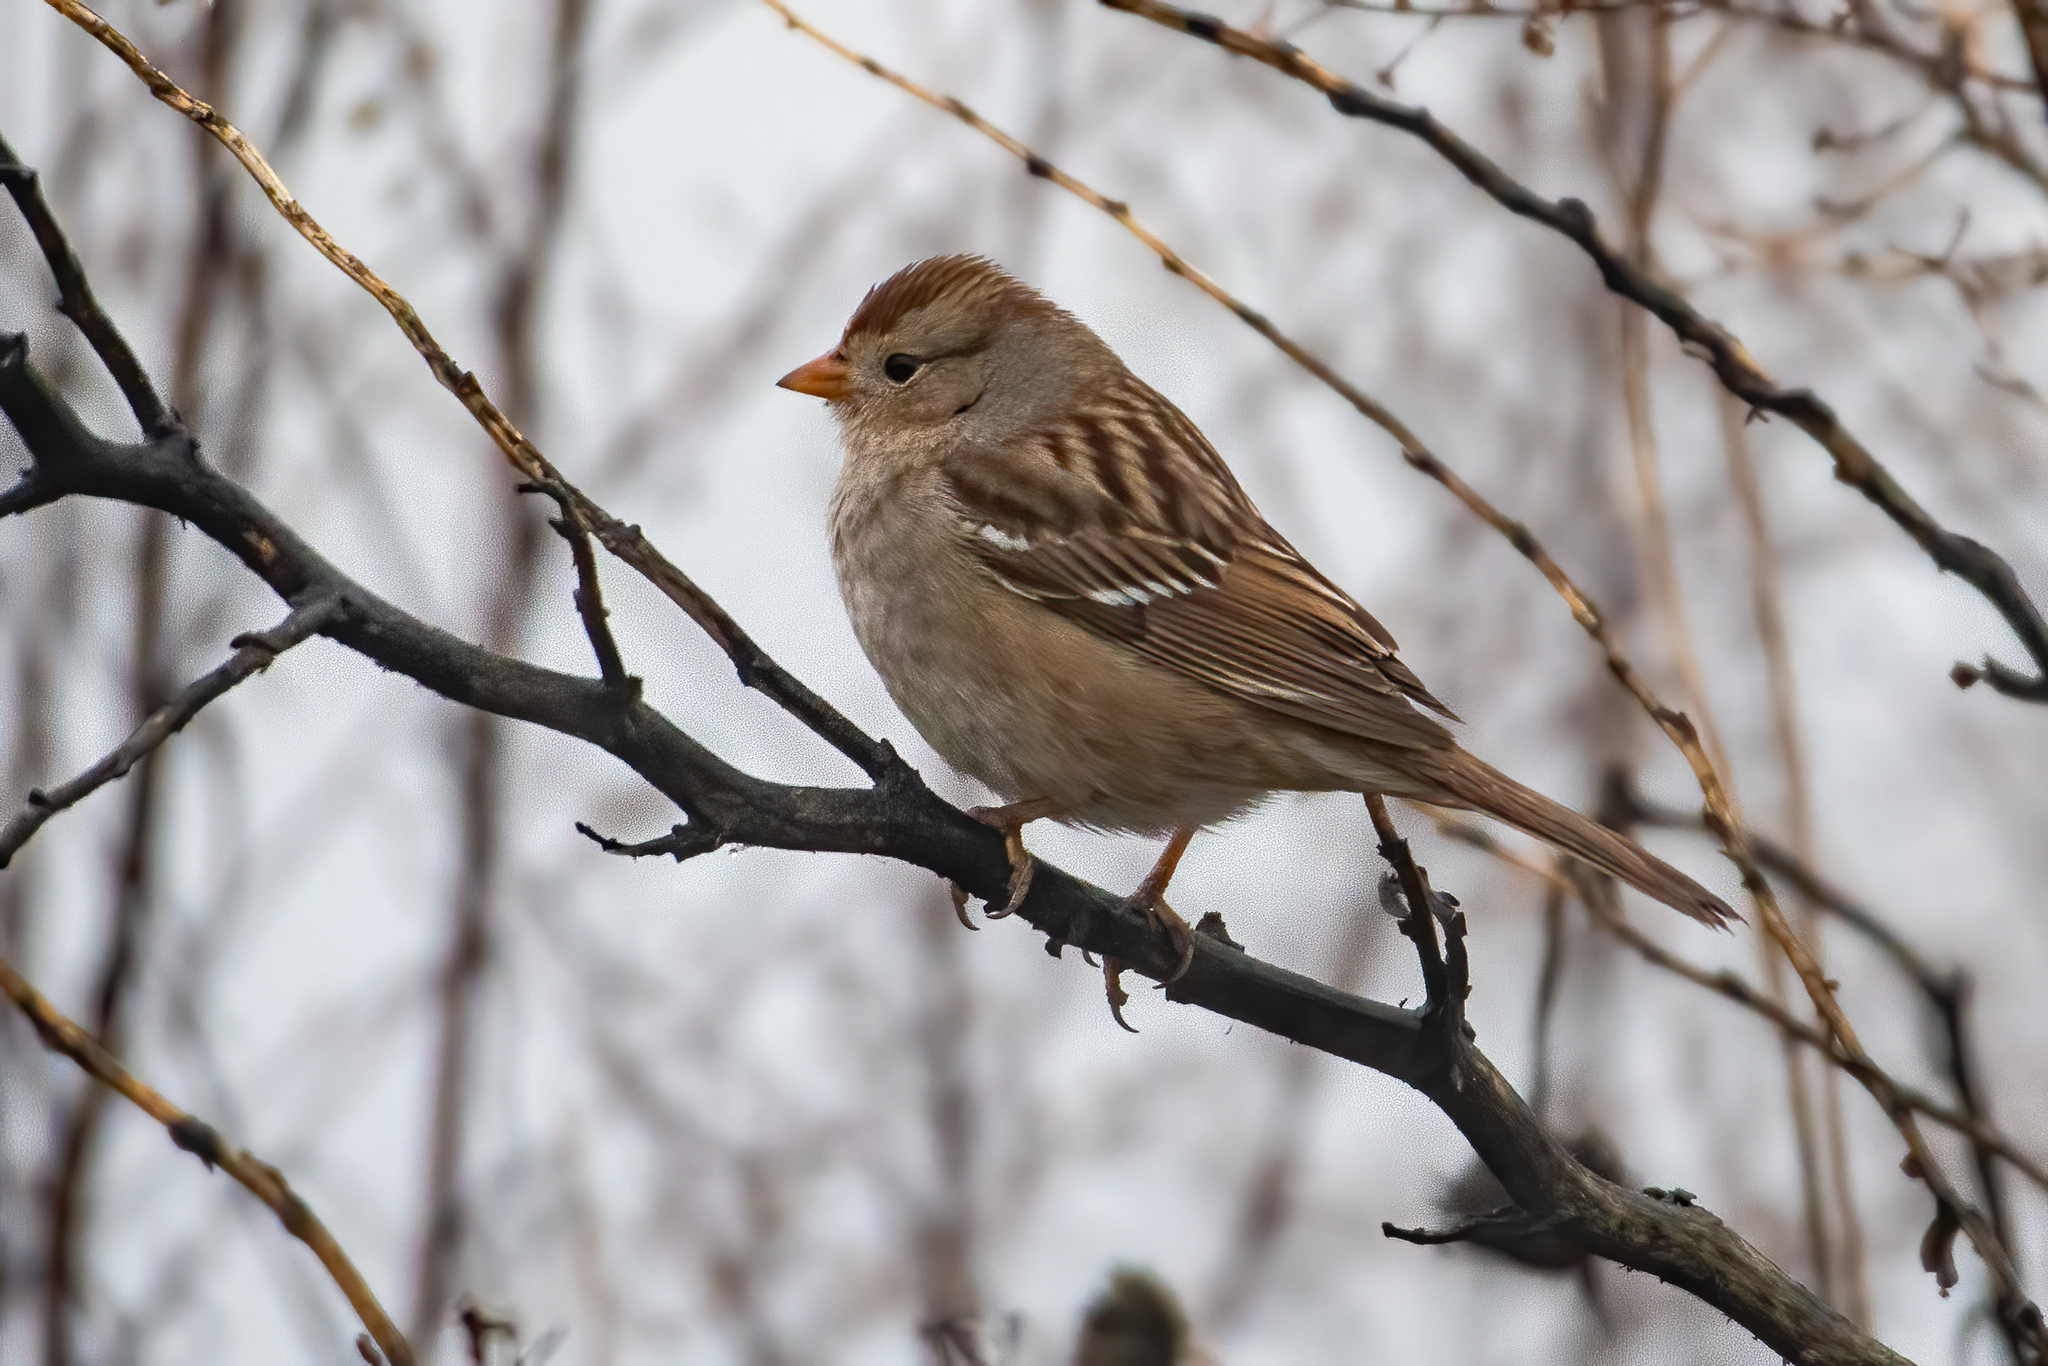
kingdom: Animalia
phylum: Chordata
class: Aves
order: Passeriformes
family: Passerellidae
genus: Zonotrichia
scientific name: Zonotrichia leucophrys
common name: White-crowned sparrow
